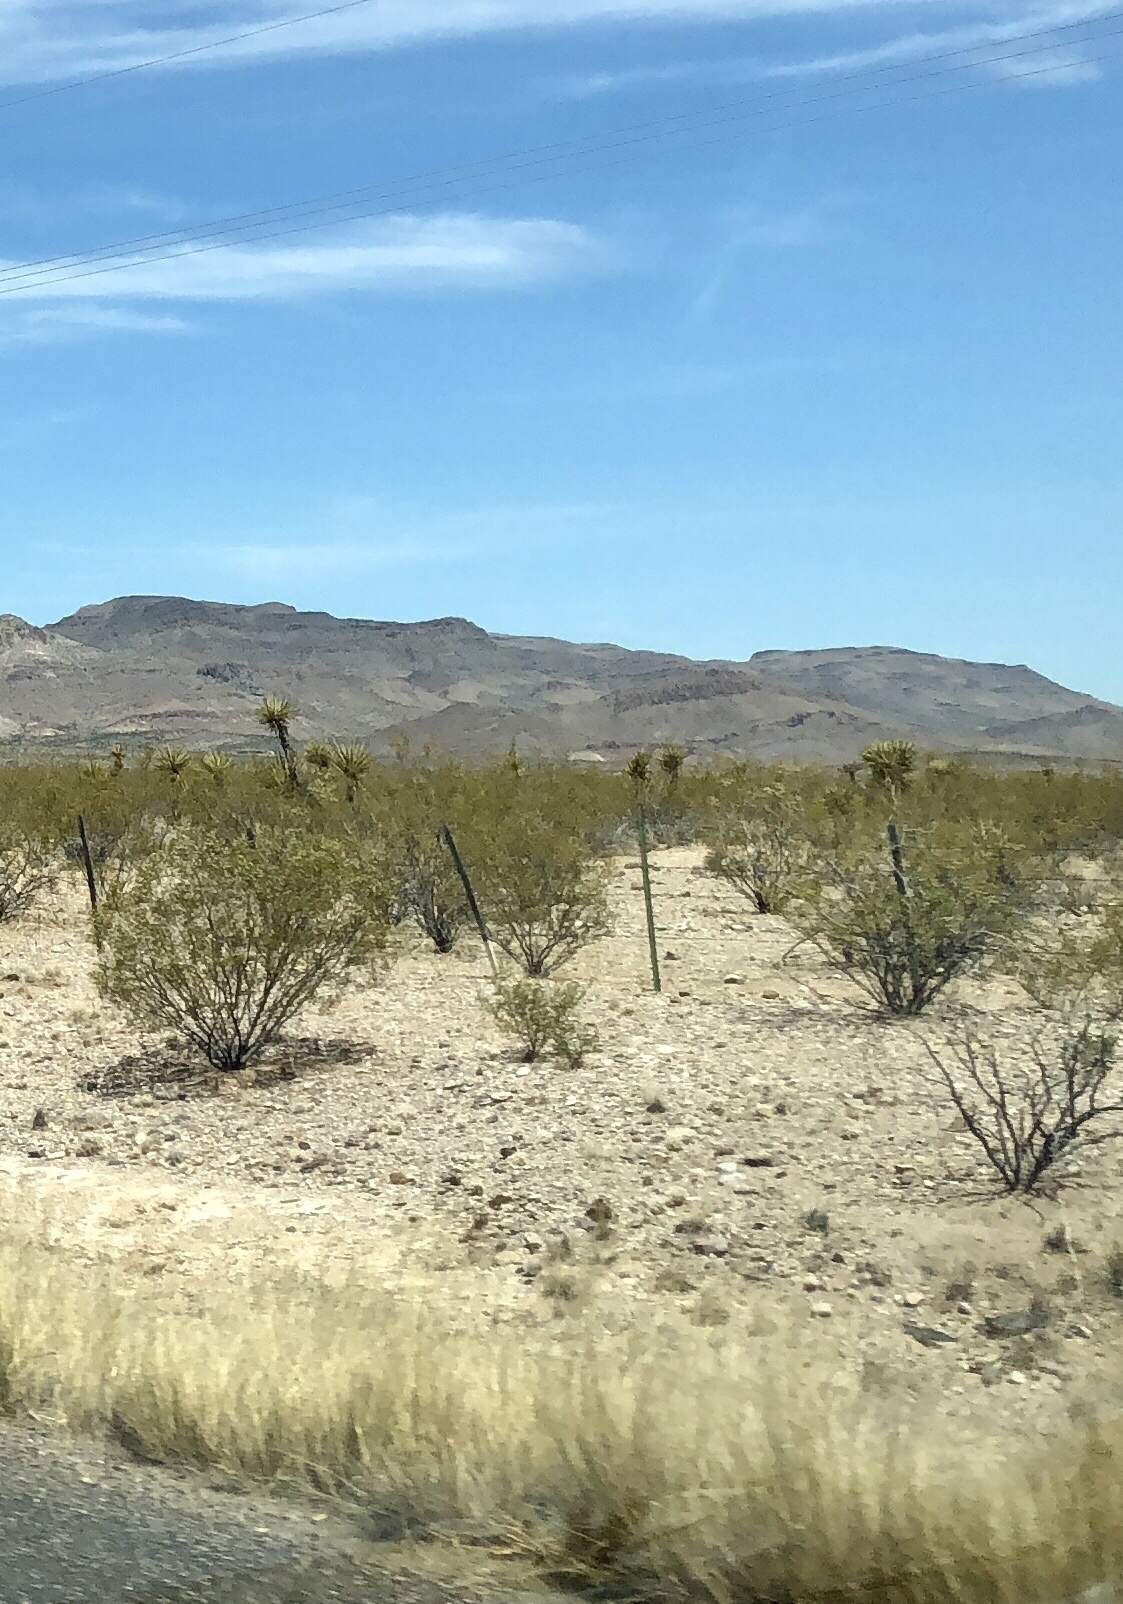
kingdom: Plantae
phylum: Tracheophyta
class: Magnoliopsida
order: Zygophyllales
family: Zygophyllaceae
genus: Larrea
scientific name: Larrea tridentata
